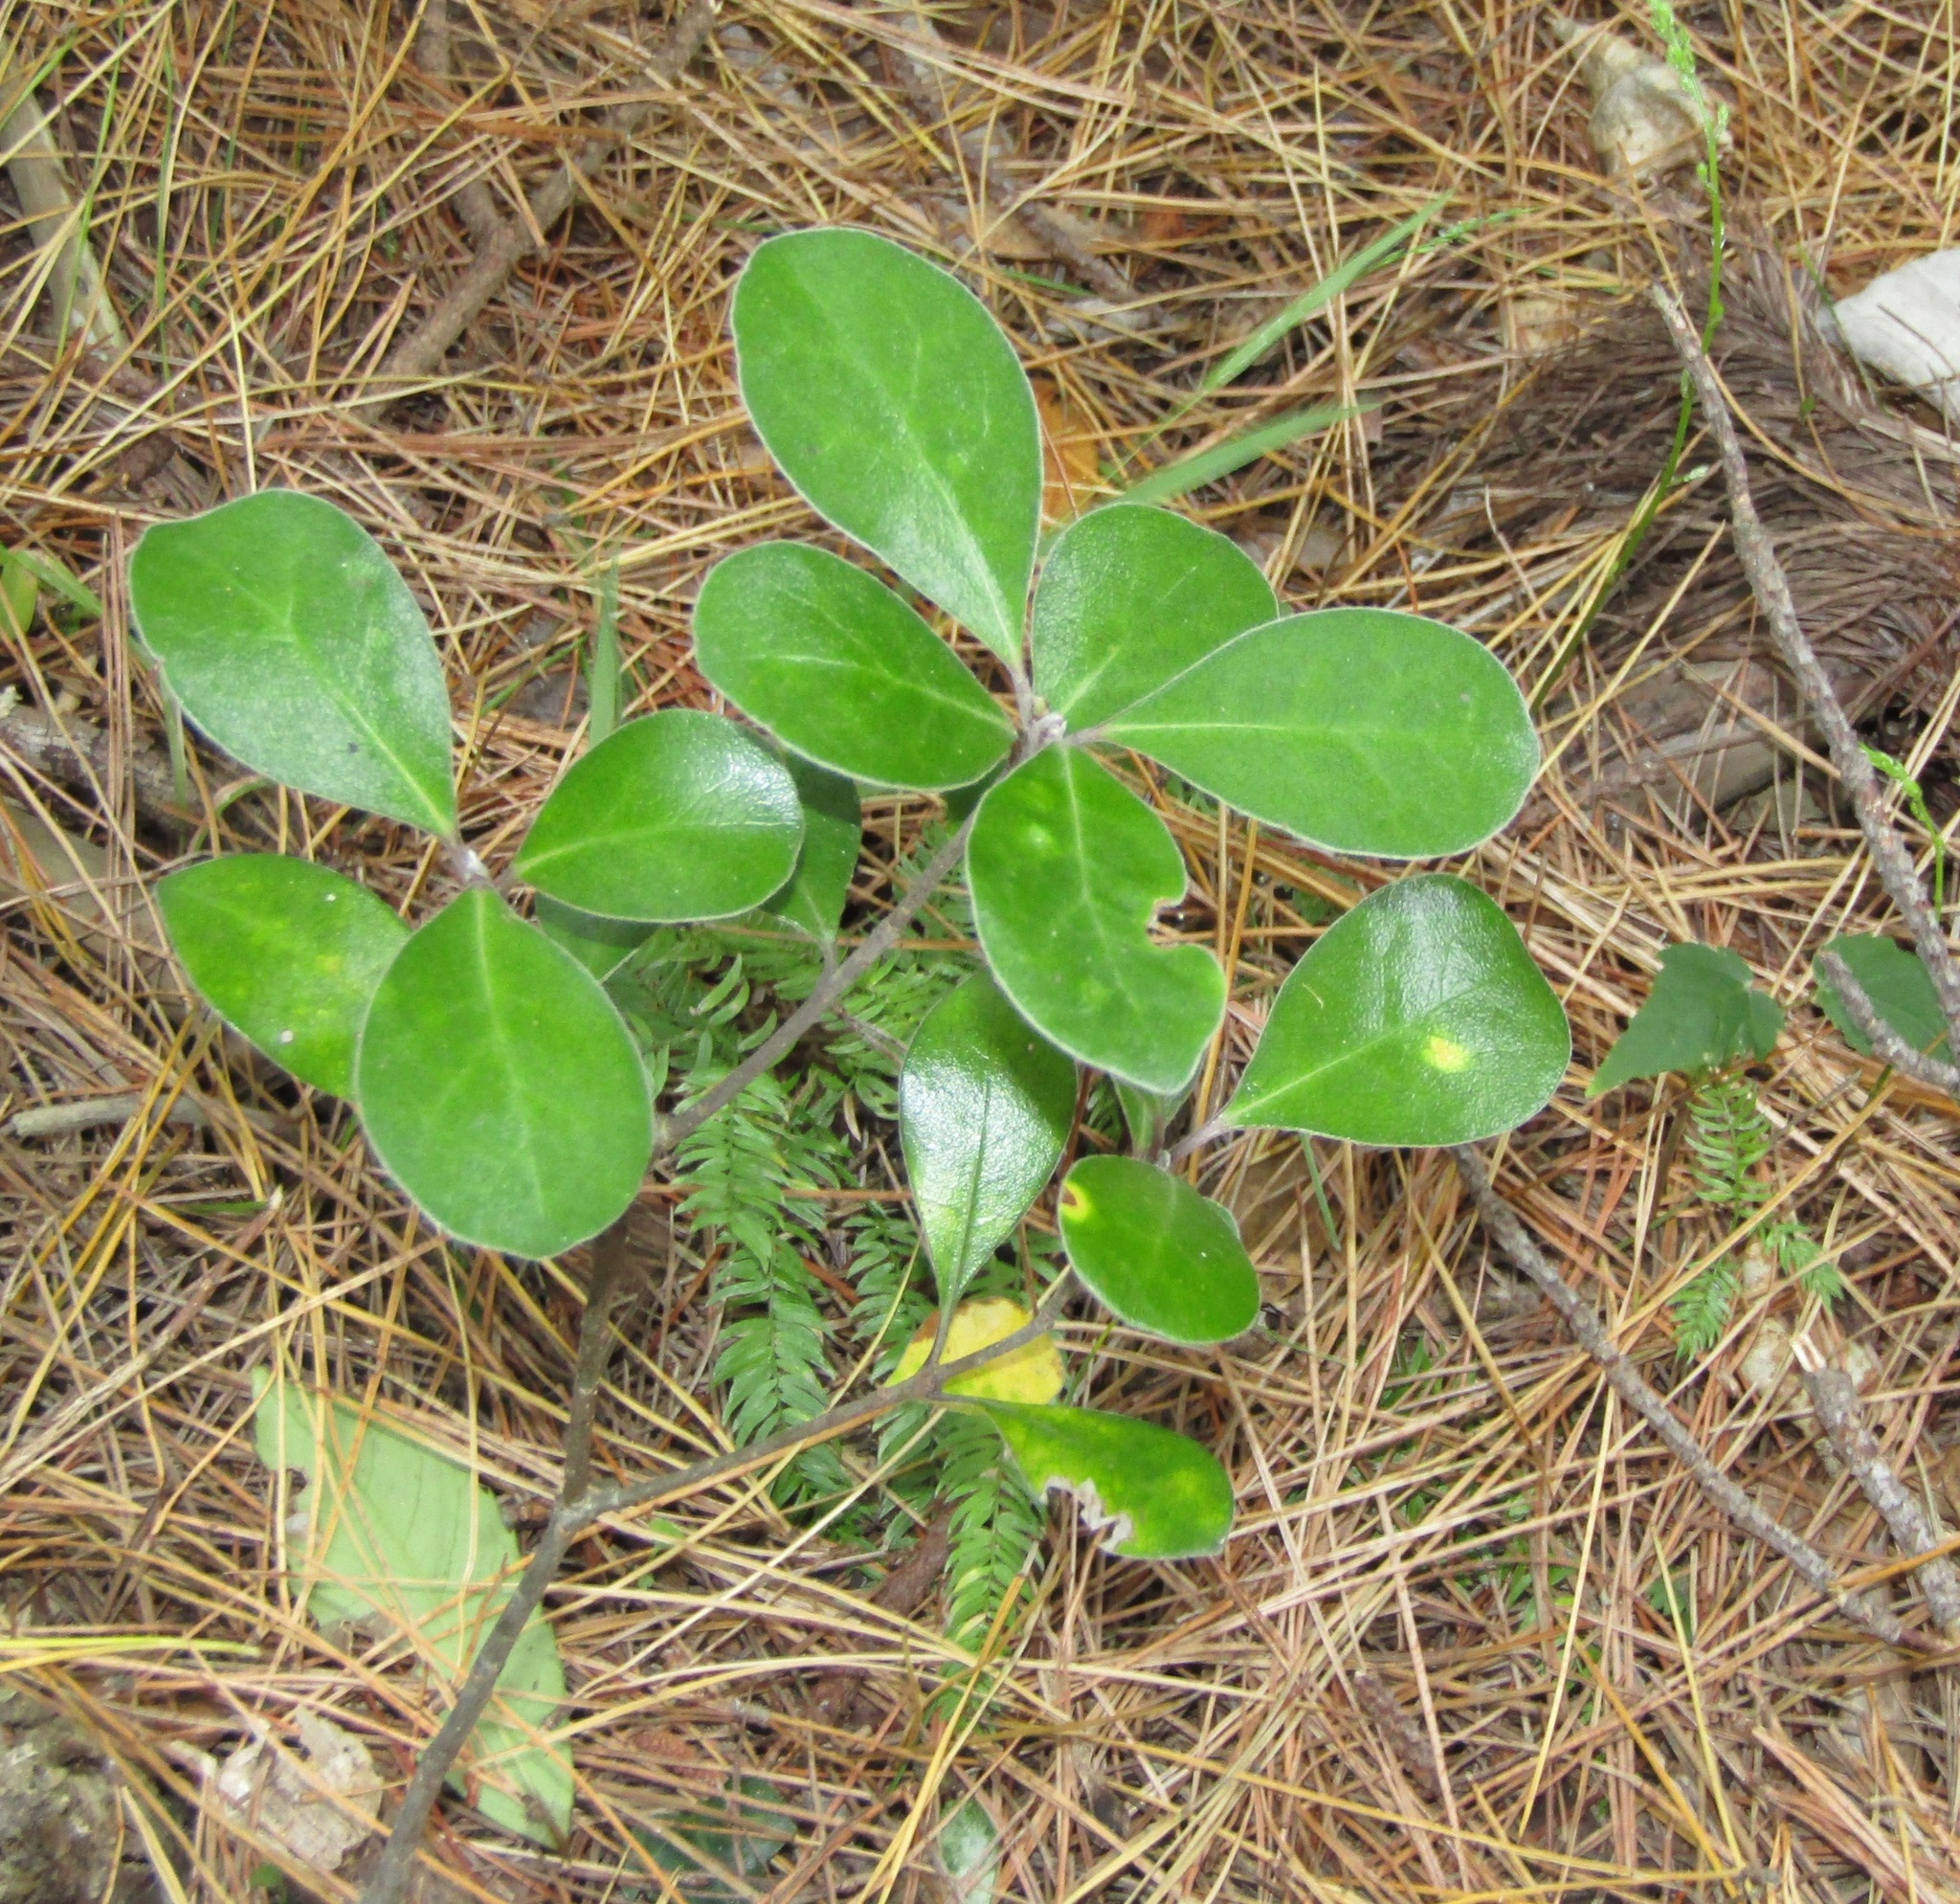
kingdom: Plantae
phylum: Tracheophyta
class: Magnoliopsida
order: Apiales
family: Pittosporaceae
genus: Pittosporum
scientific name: Pittosporum crassifolium
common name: Karo
